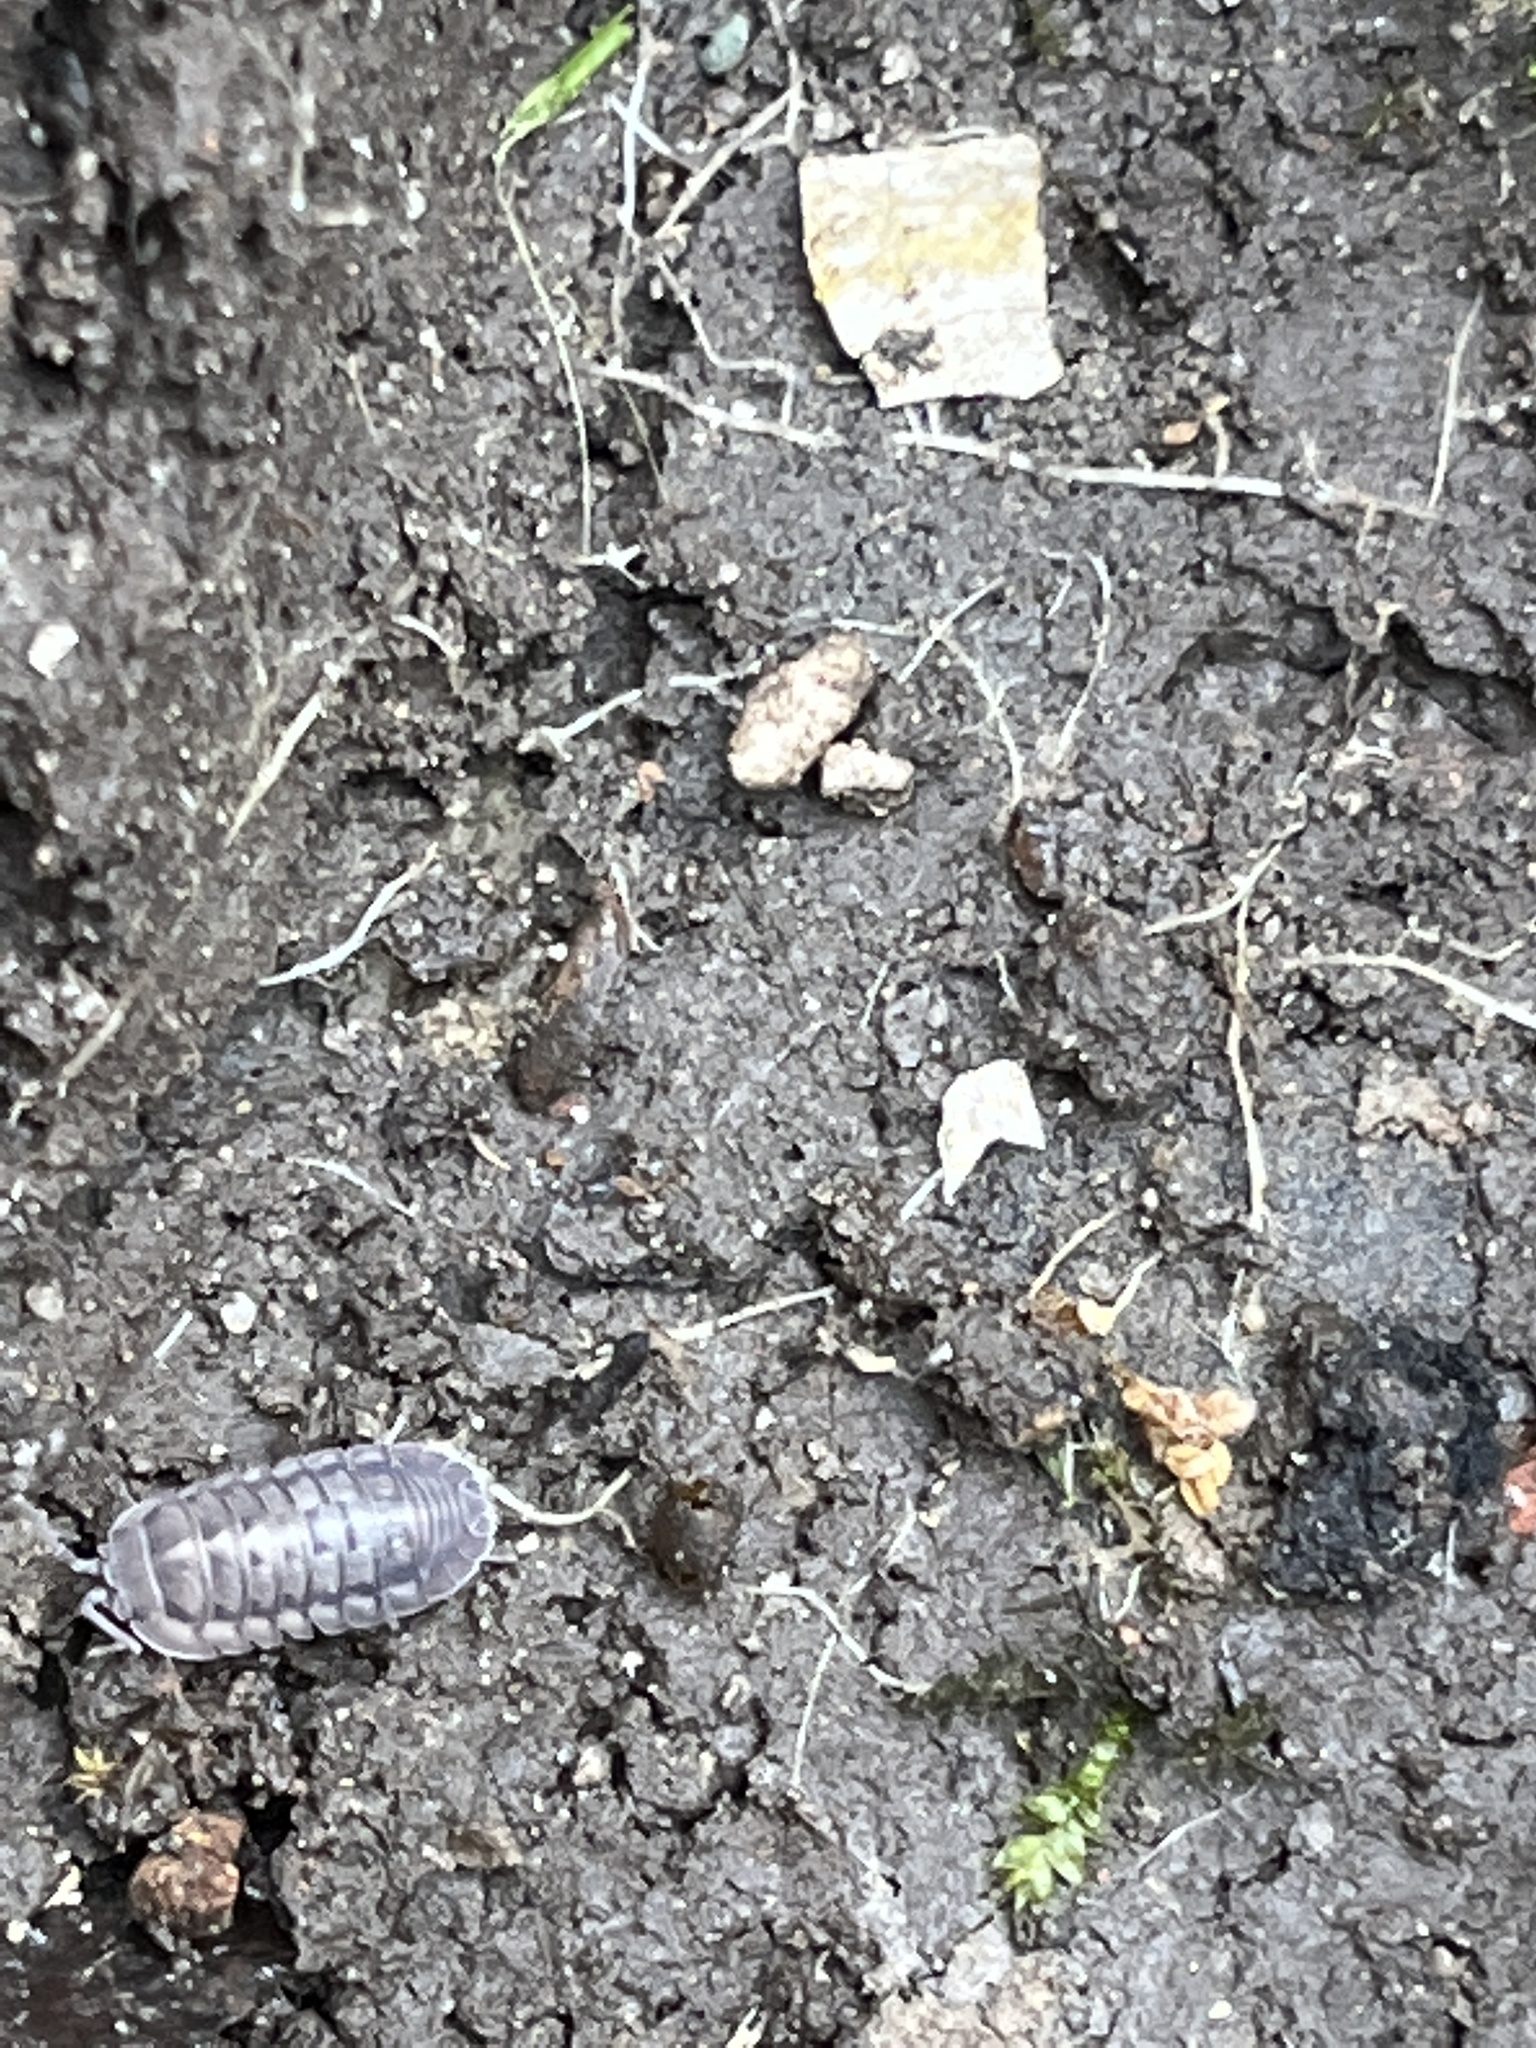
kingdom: Animalia
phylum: Arthropoda
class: Malacostraca
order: Isopoda
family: Armadillidiidae
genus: Armadillidium
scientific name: Armadillidium nasatum
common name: Isopod
